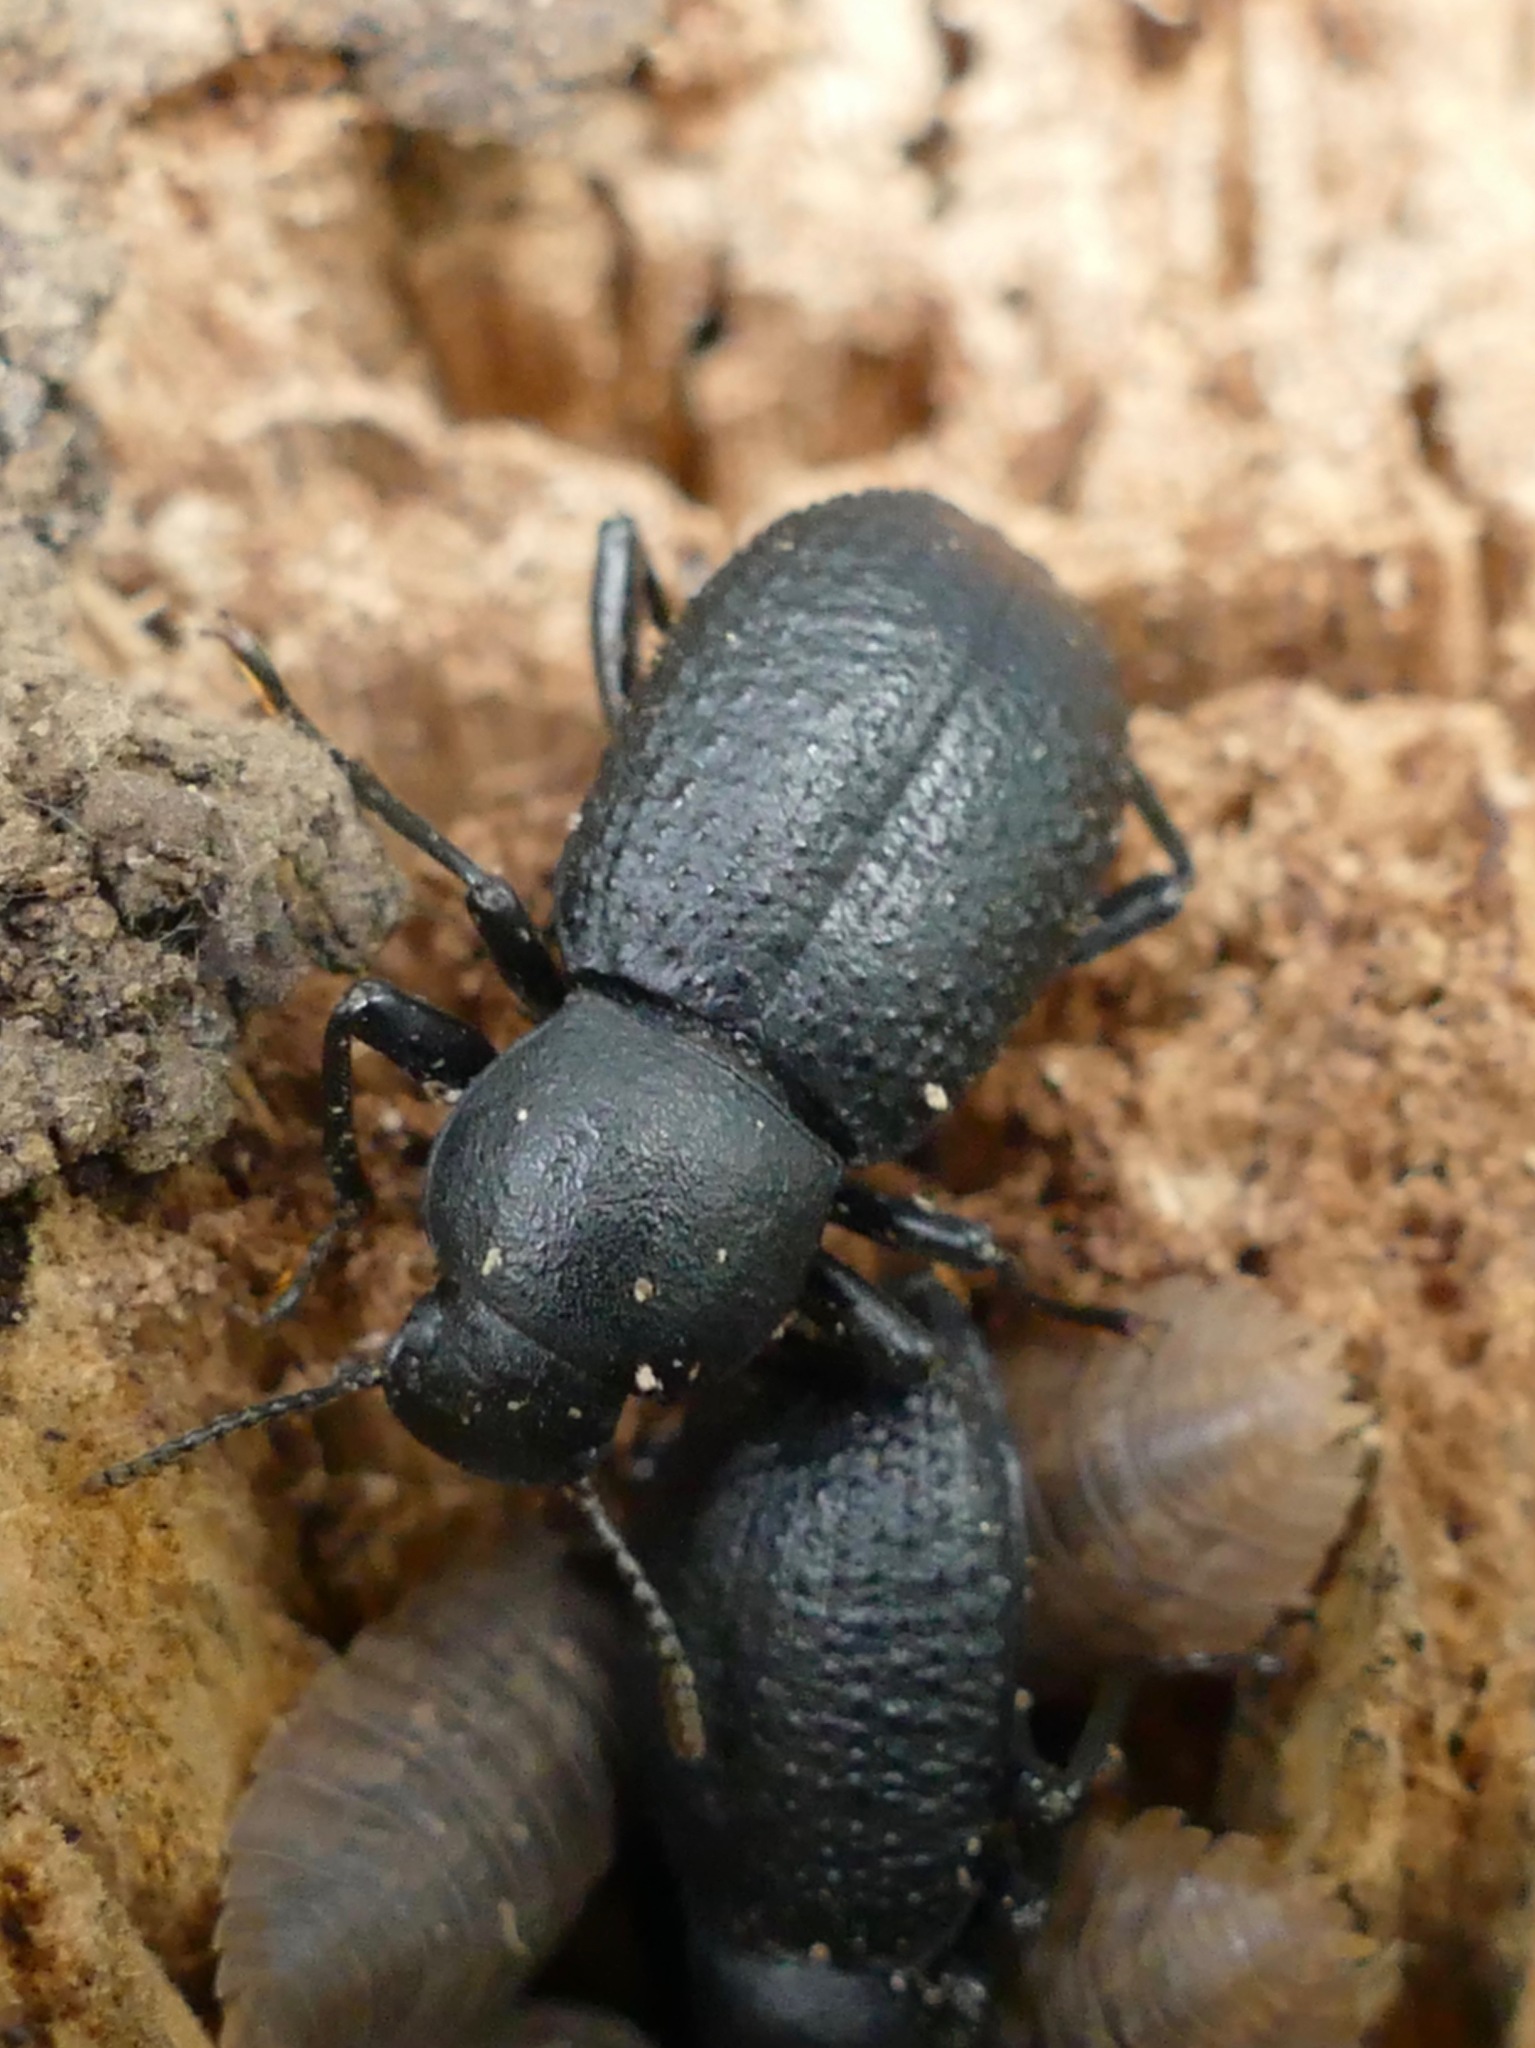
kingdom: Animalia
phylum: Arthropoda
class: Insecta
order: Coleoptera
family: Tenebrionidae
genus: Cibdelis
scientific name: Cibdelis blaschkii
